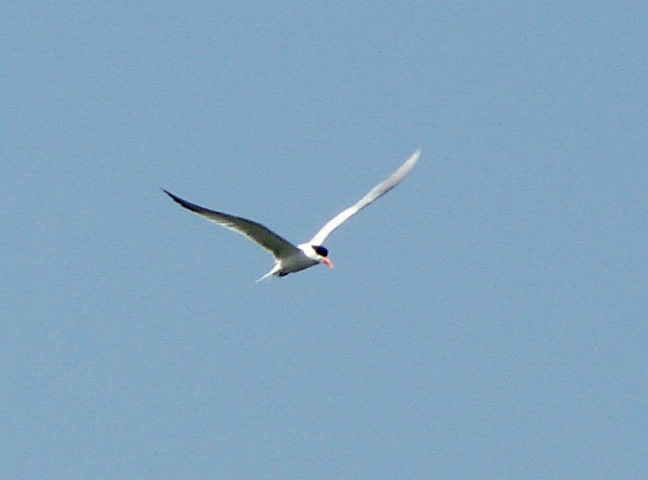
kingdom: Animalia
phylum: Chordata
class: Aves
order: Charadriiformes
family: Laridae
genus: Thalasseus
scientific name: Thalasseus maximus
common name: Royal tern
